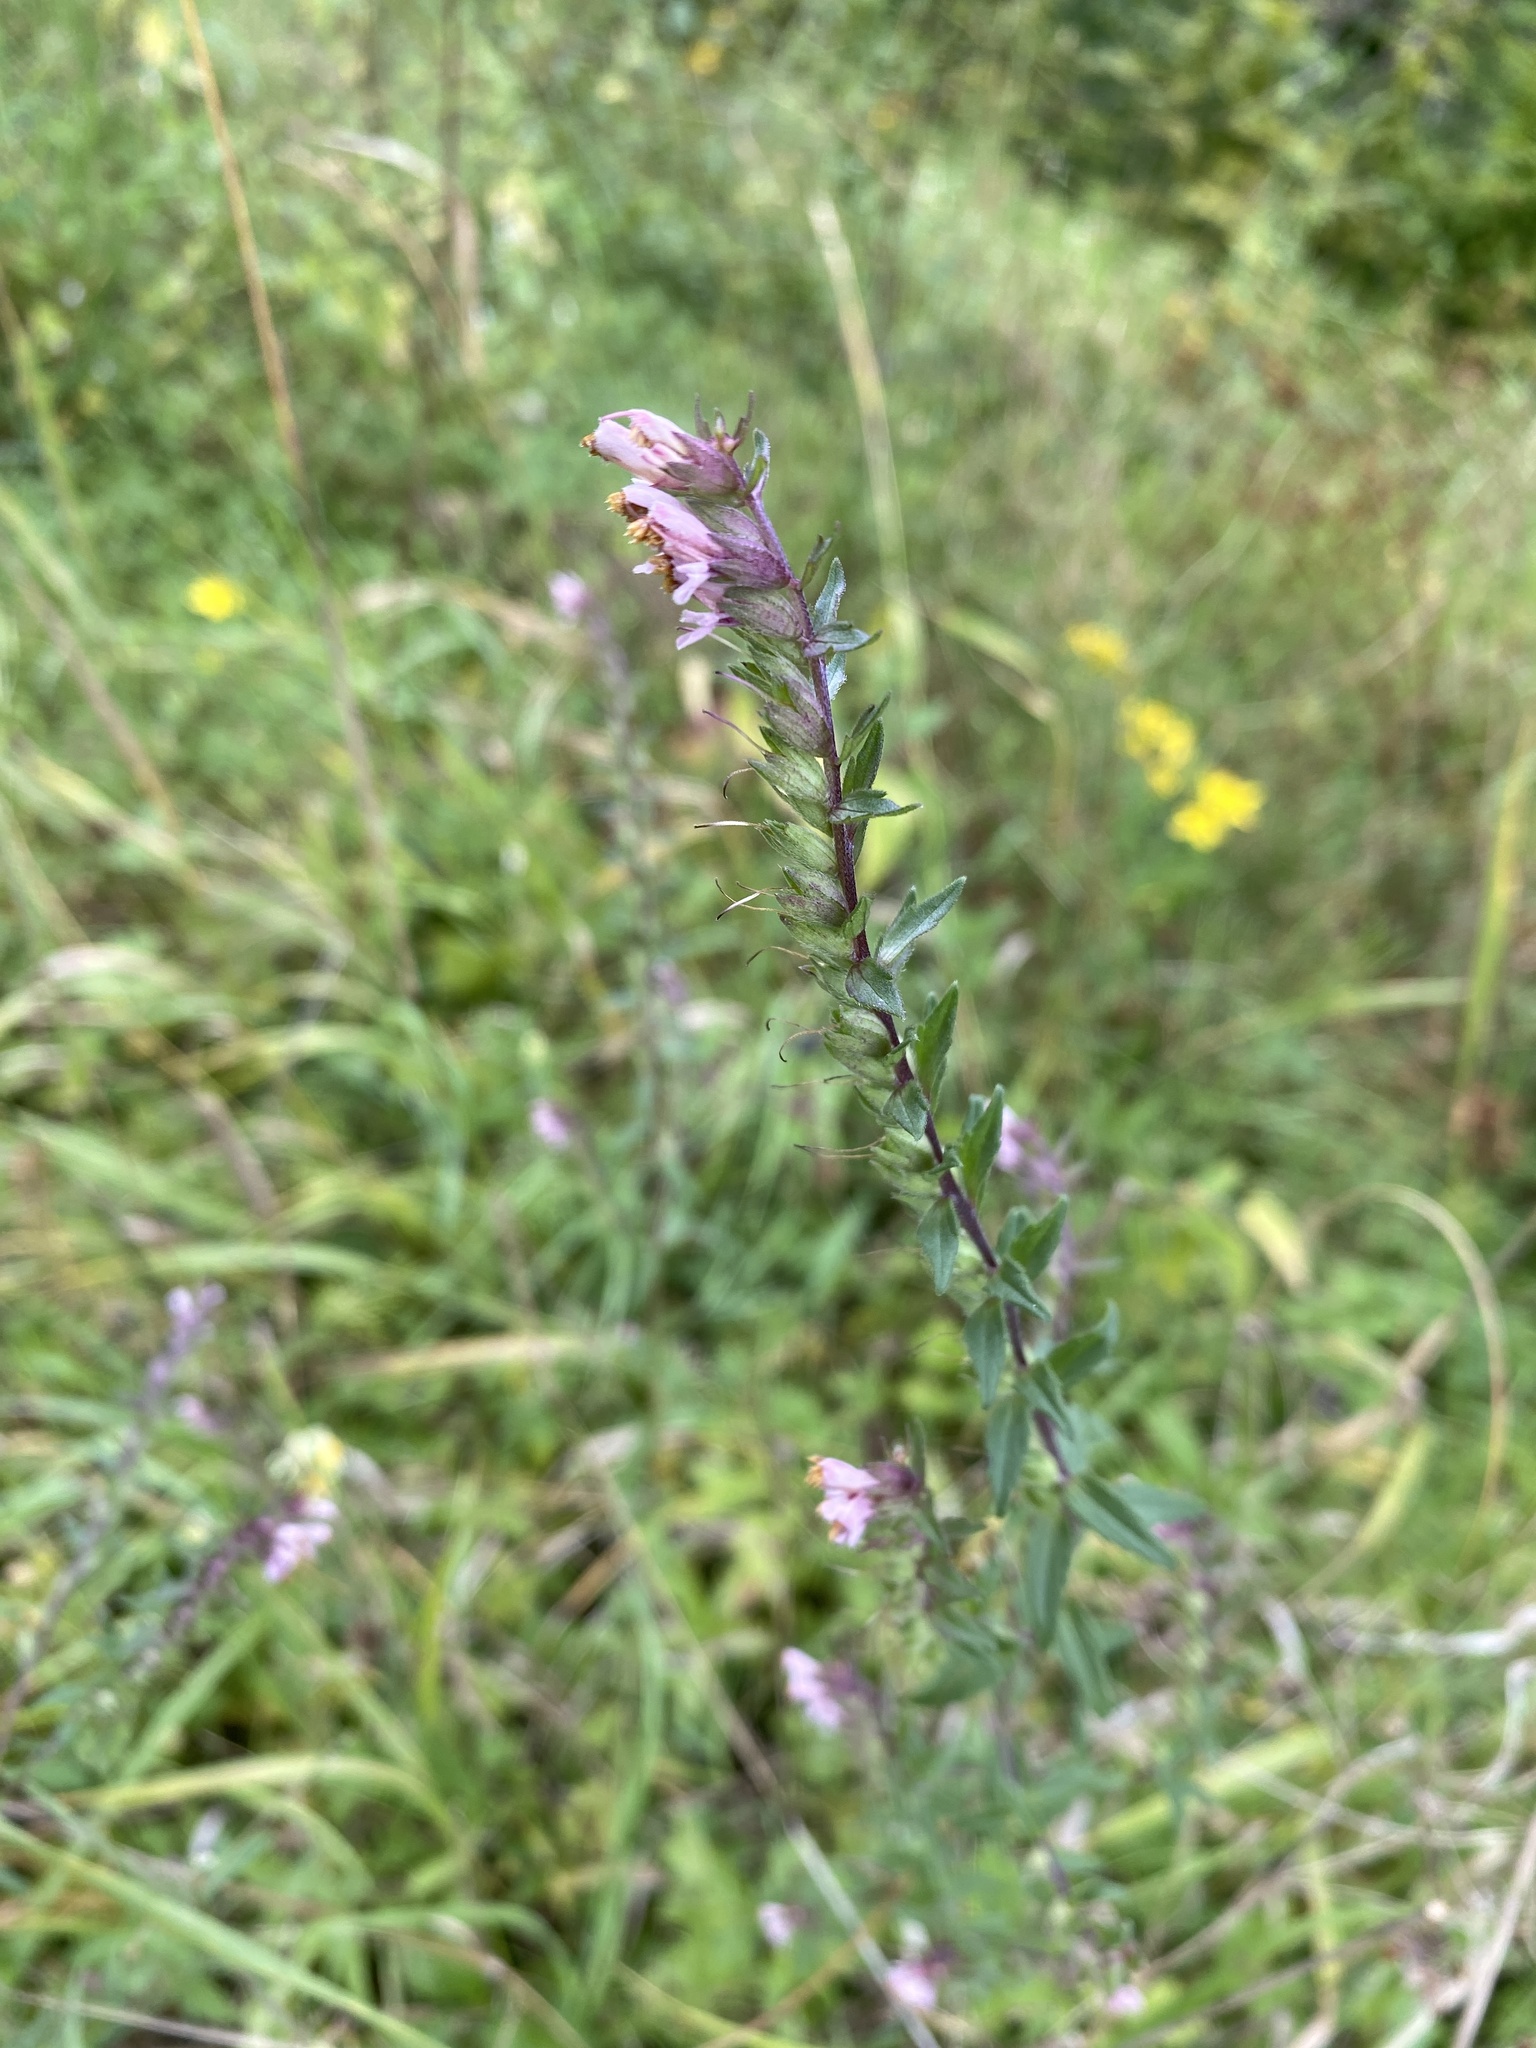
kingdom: Plantae
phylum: Tracheophyta
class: Magnoliopsida
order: Lamiales
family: Orobanchaceae
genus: Odontites
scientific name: Odontites vernus
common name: Red bartsia
